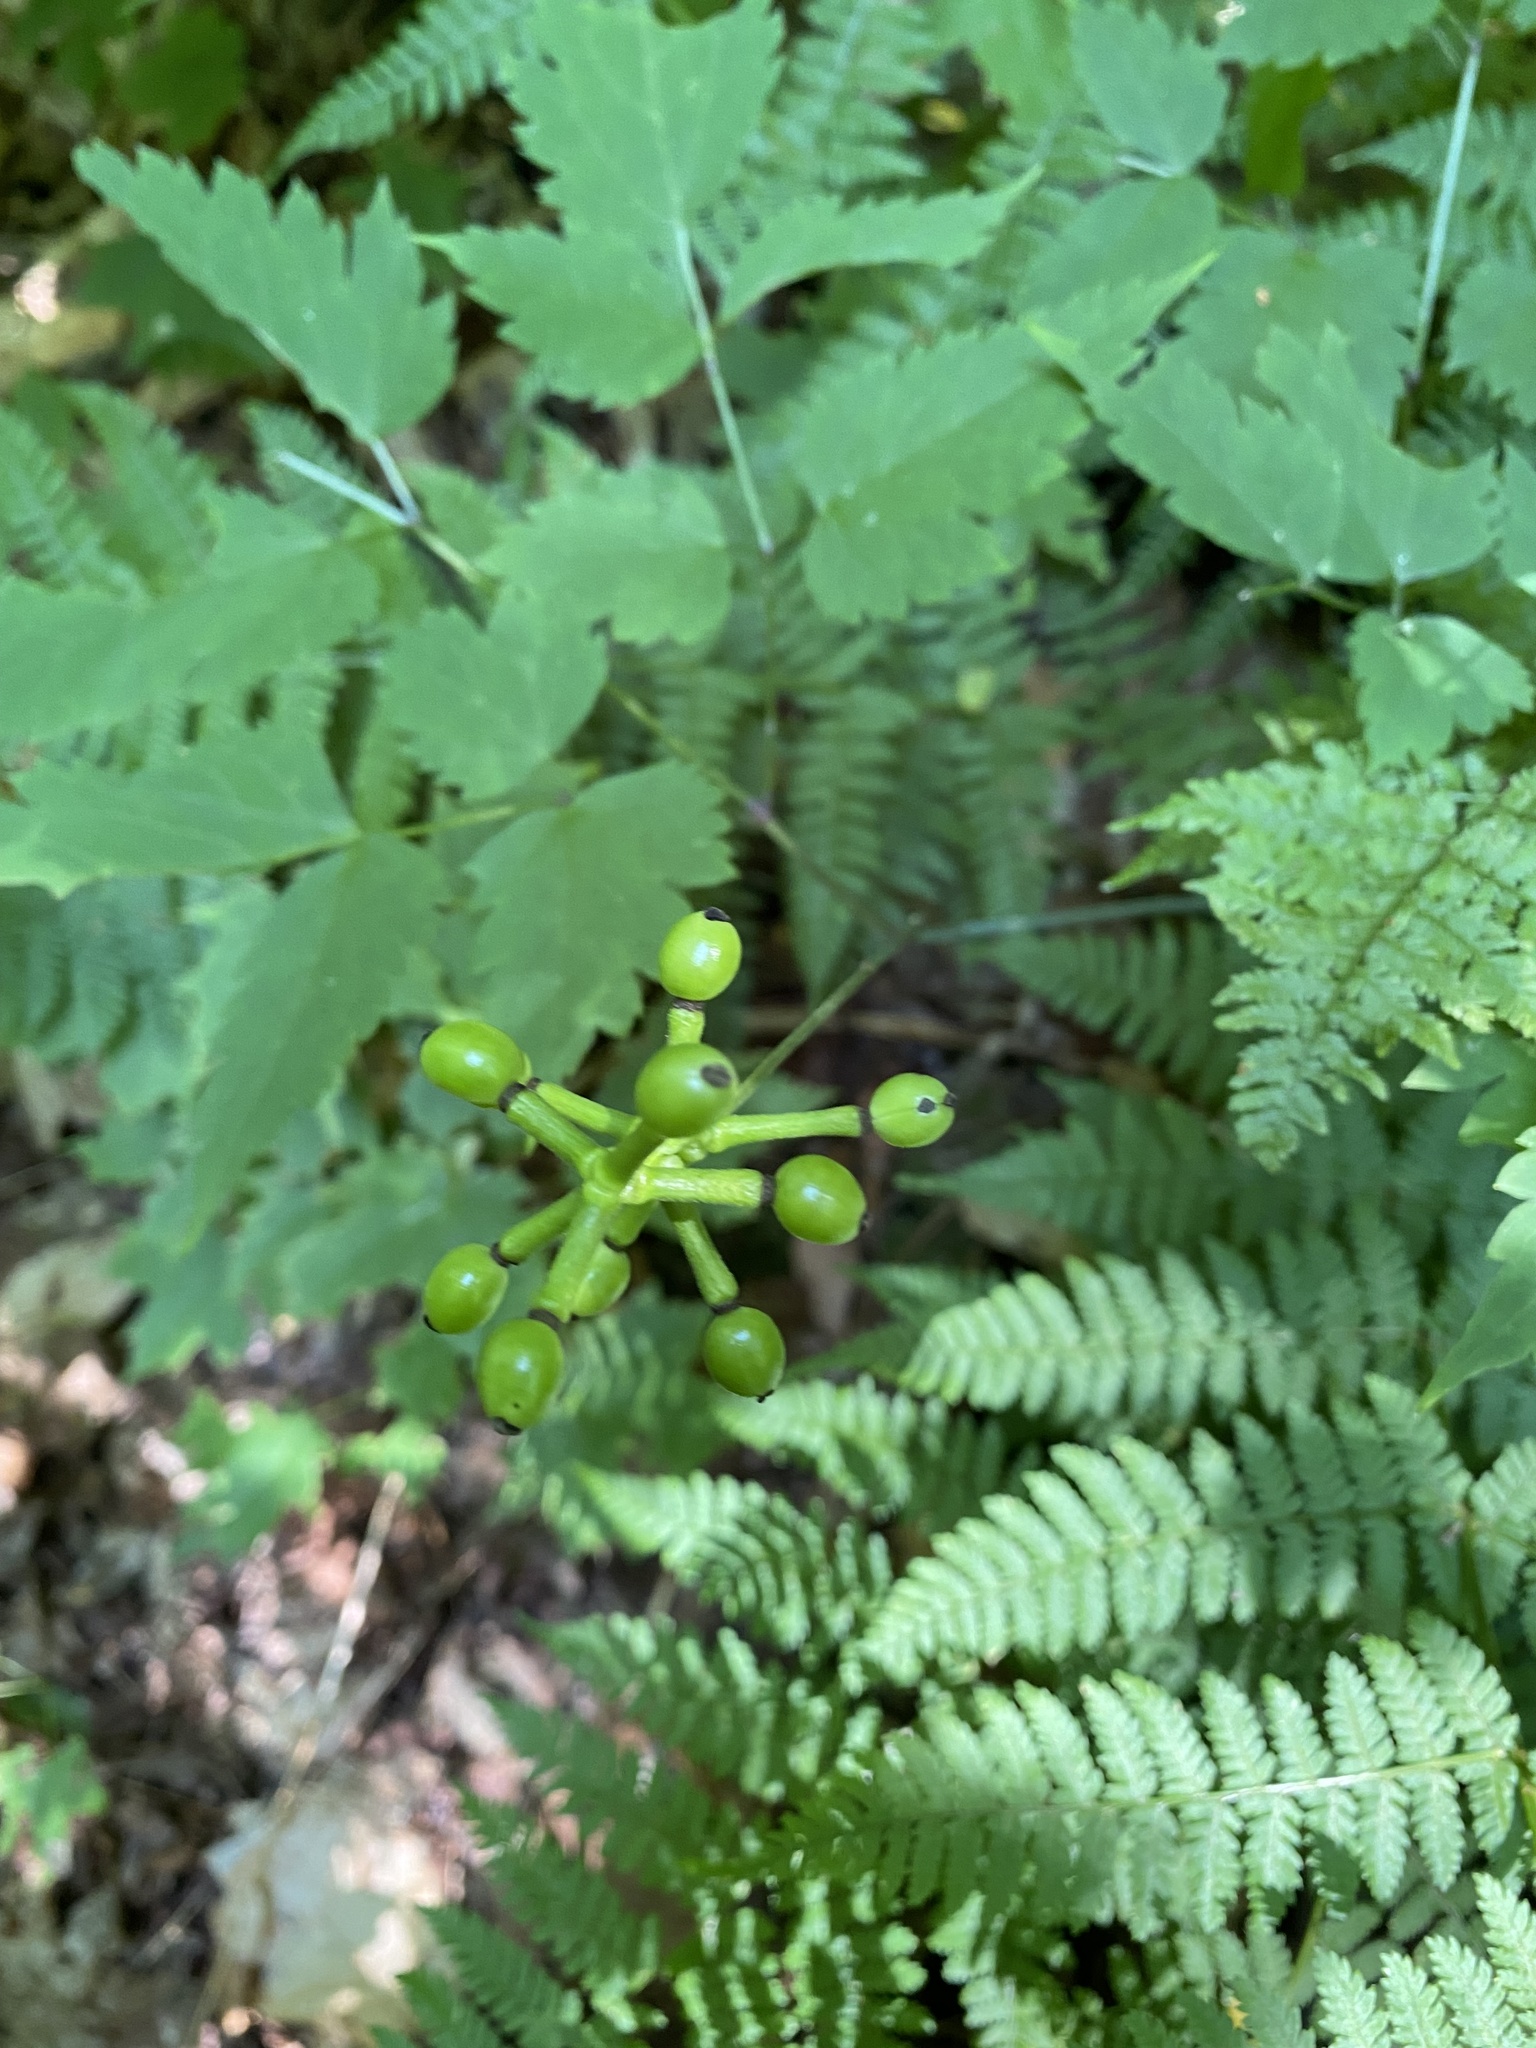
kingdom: Plantae
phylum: Tracheophyta
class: Magnoliopsida
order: Ranunculales
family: Ranunculaceae
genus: Actaea
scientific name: Actaea pachypoda
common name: Doll's-eyes
